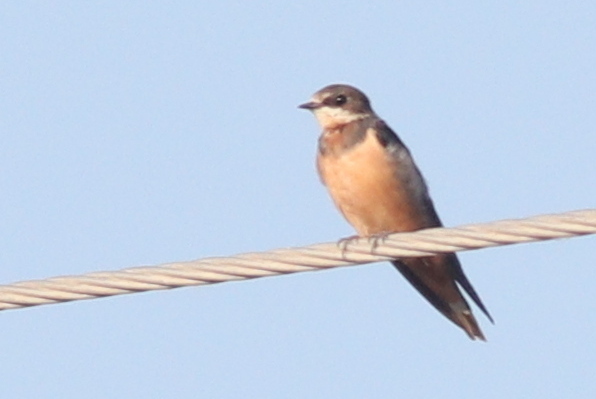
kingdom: Animalia
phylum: Chordata
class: Aves
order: Passeriformes
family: Hirundinidae
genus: Hirundo
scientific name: Hirundo rustica
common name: Barn swallow
